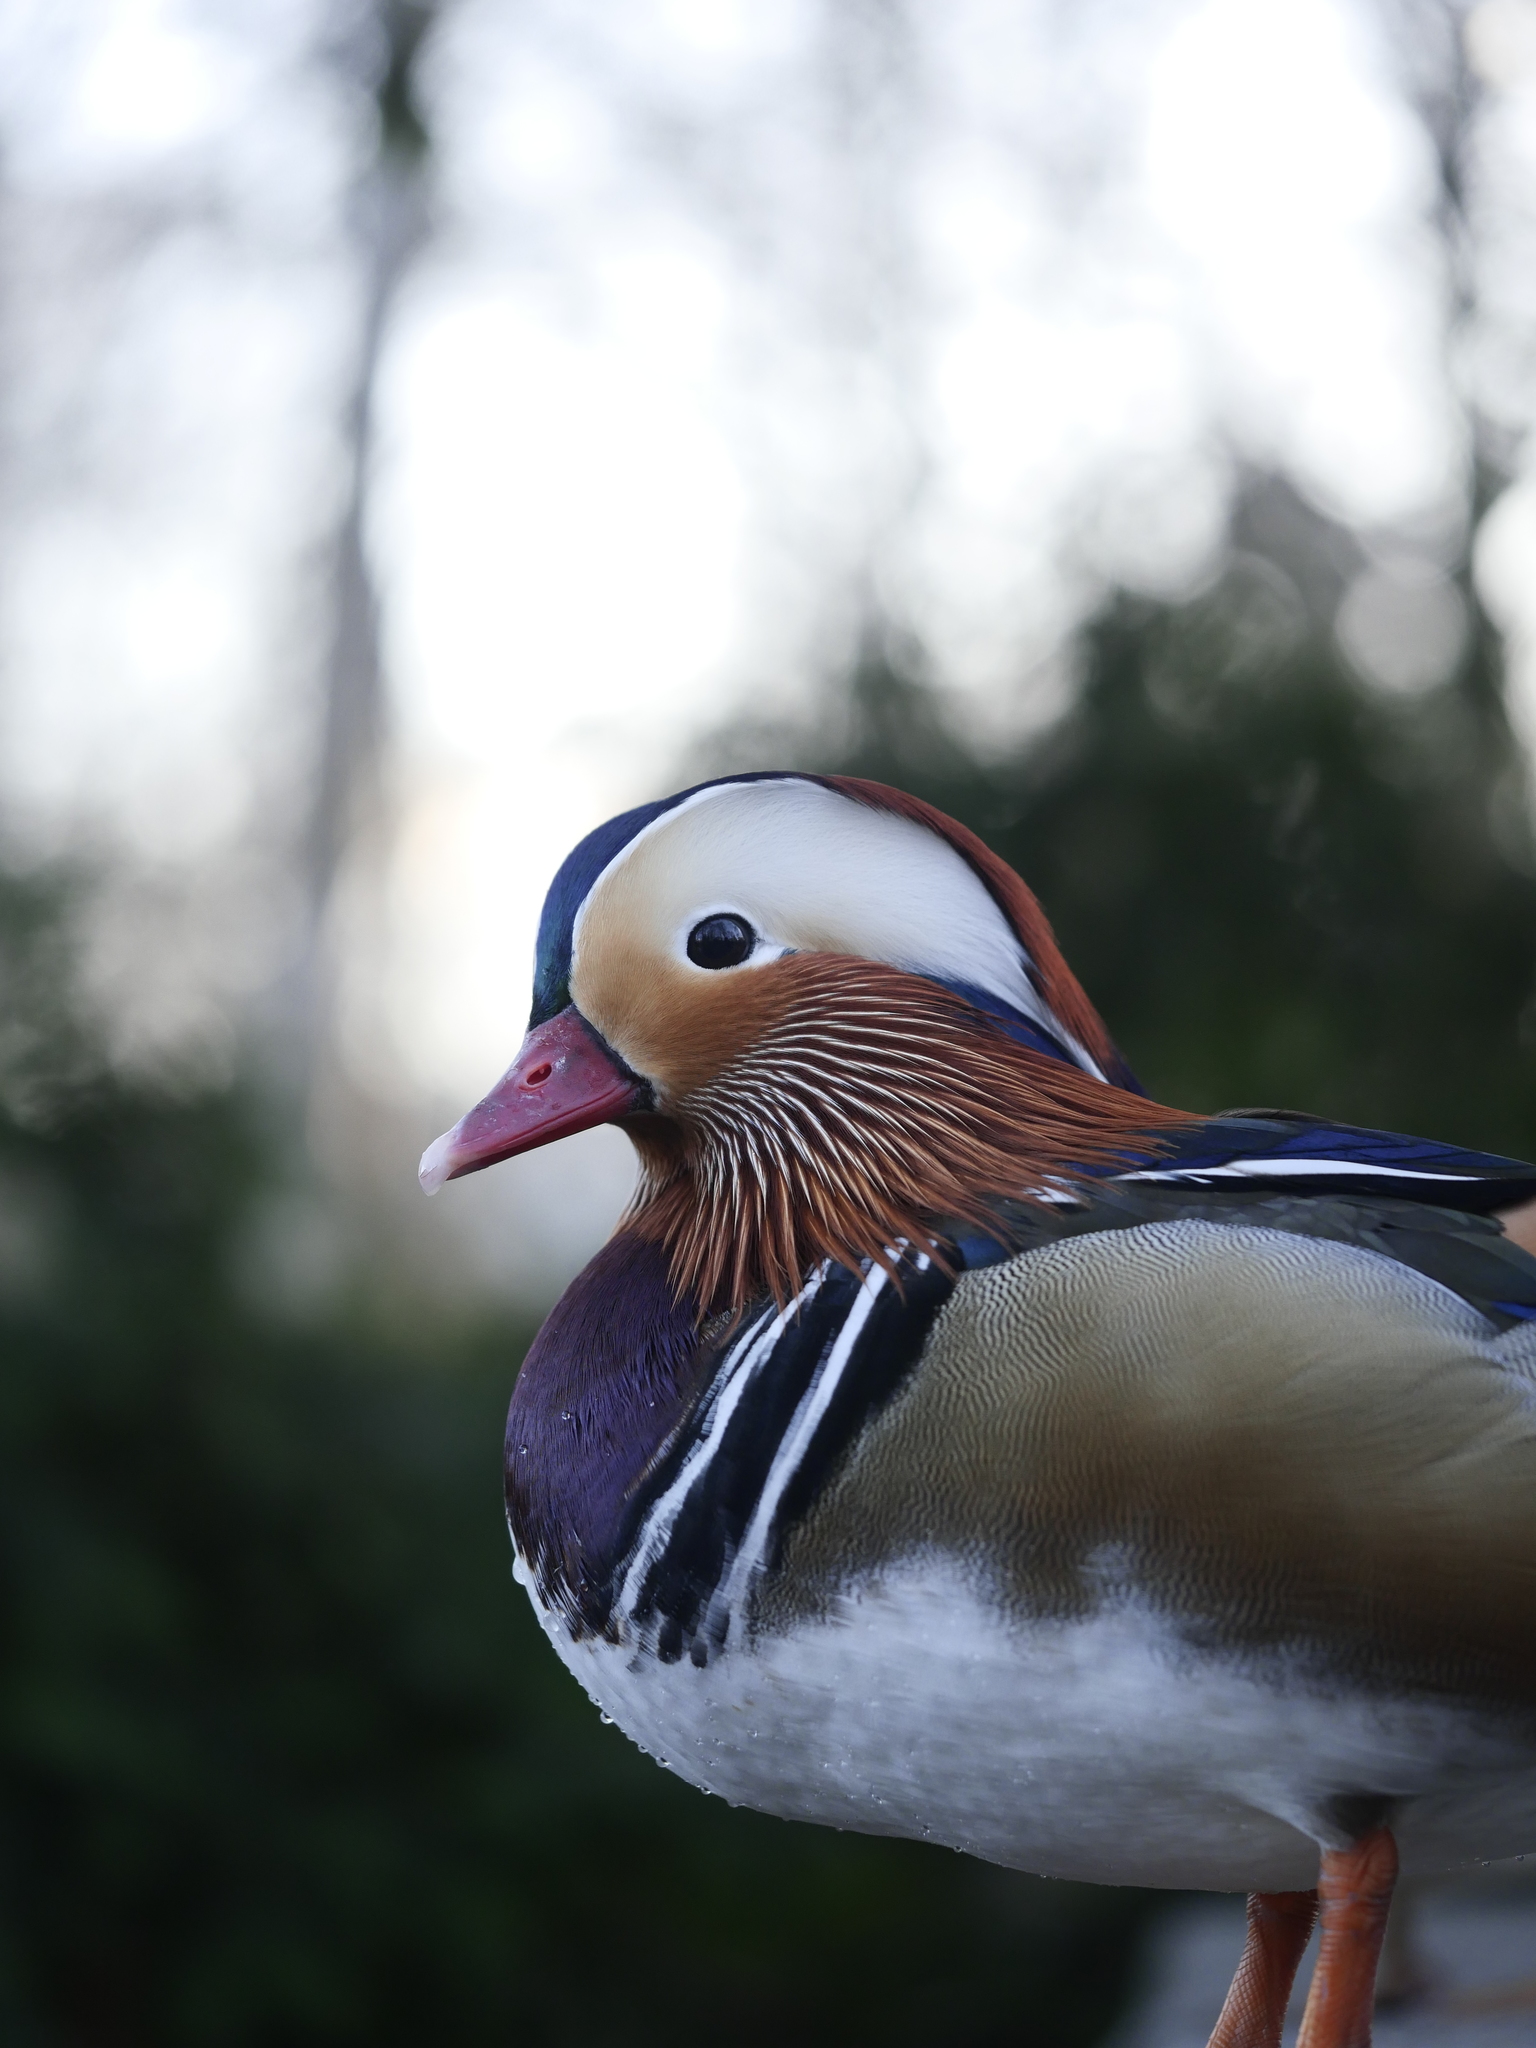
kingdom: Animalia
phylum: Chordata
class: Aves
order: Anseriformes
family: Anatidae
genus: Aix
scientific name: Aix galericulata
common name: Mandarin duck
